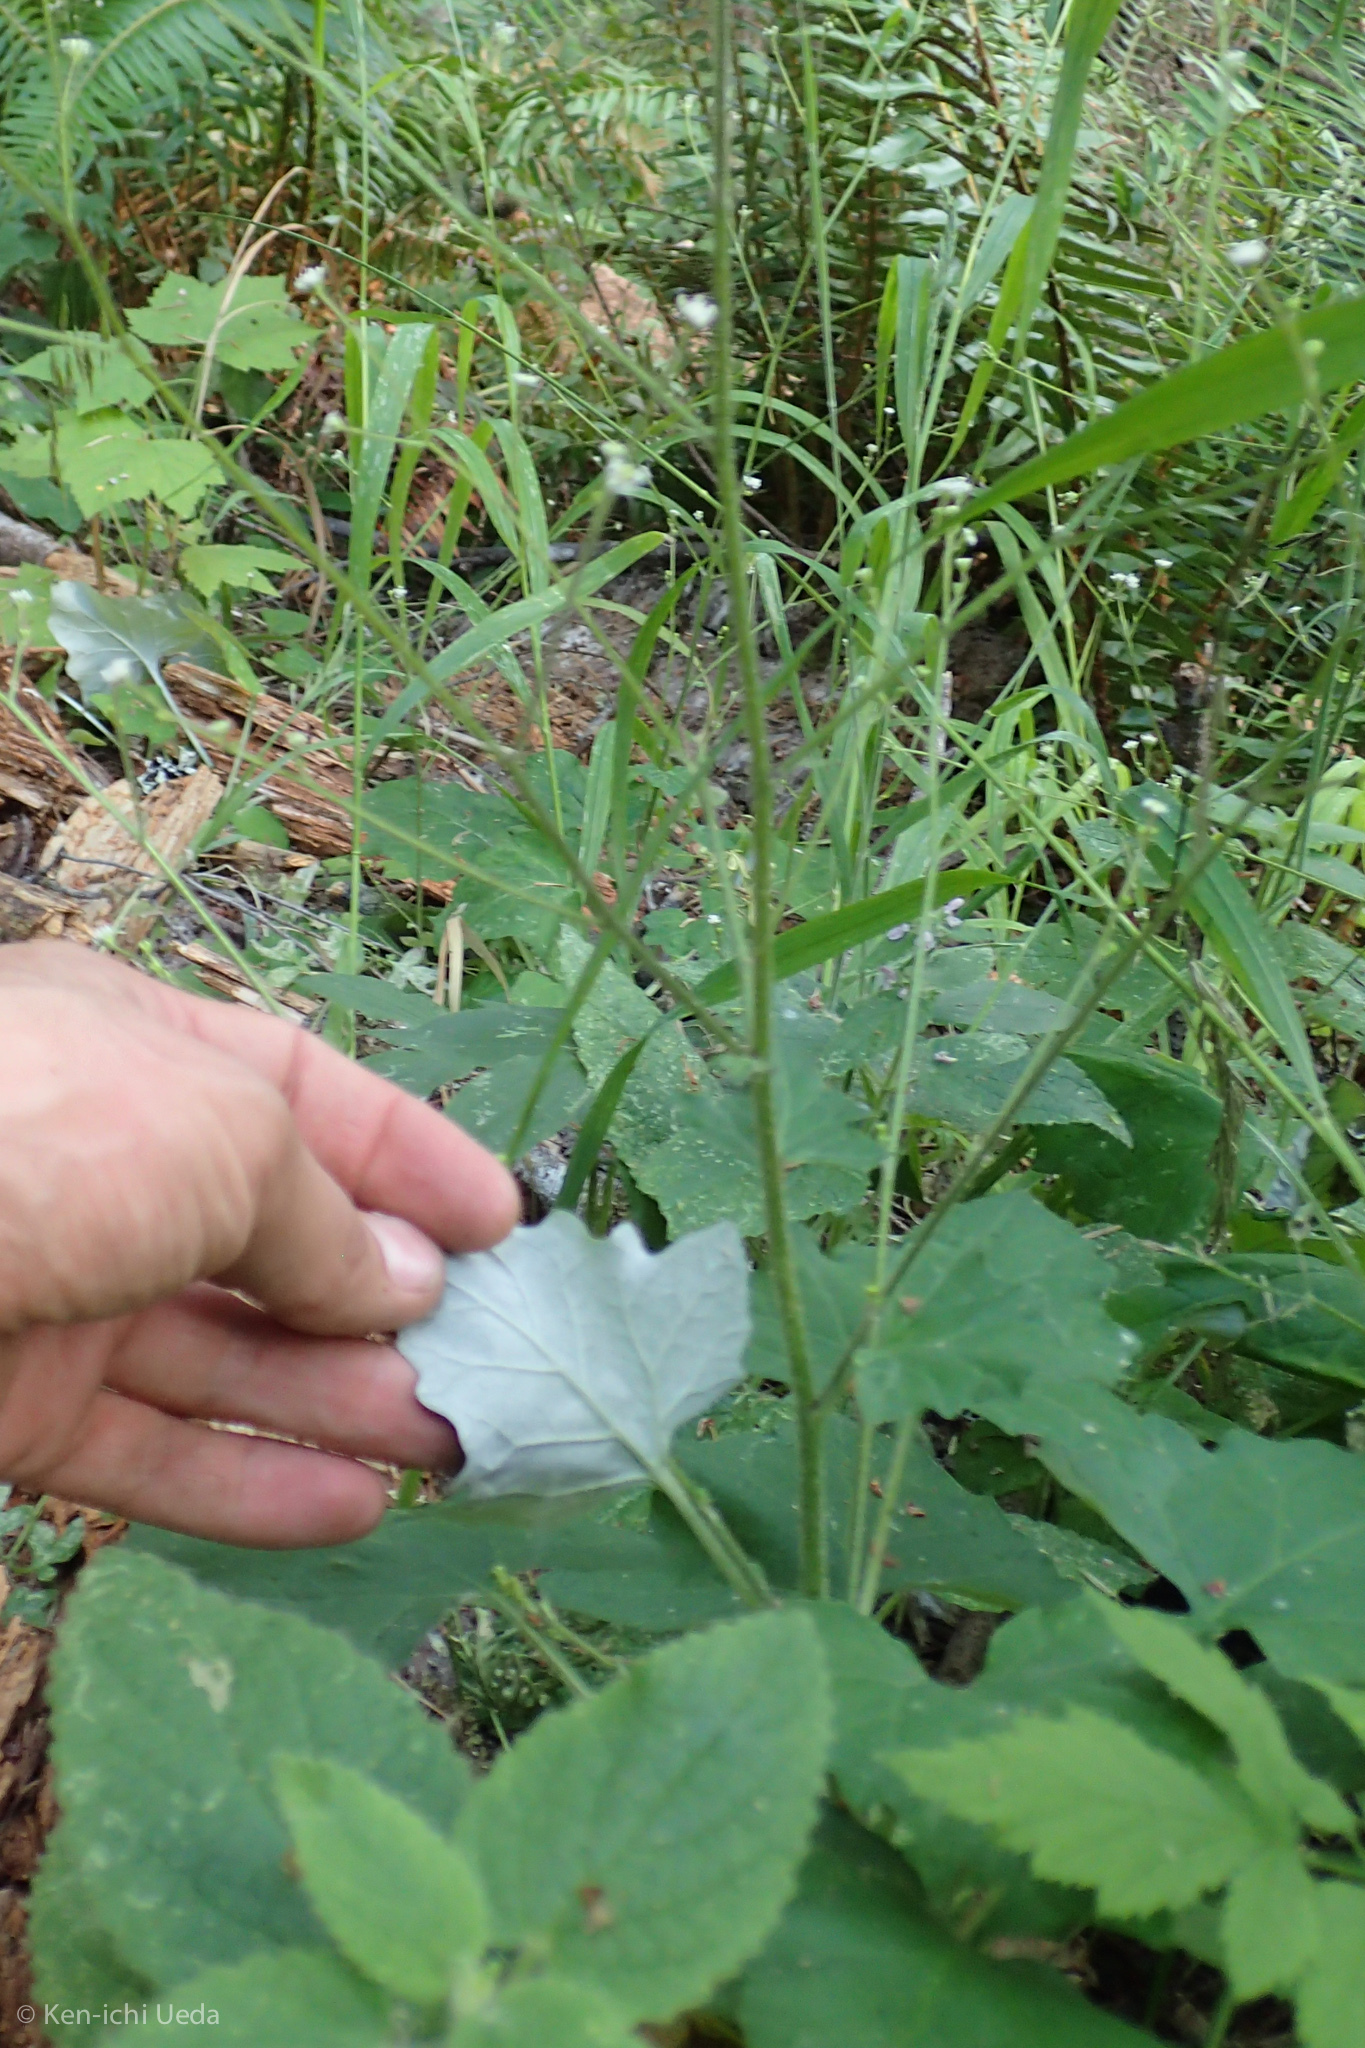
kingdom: Plantae
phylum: Tracheophyta
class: Magnoliopsida
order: Asterales
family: Asteraceae
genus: Adenocaulon
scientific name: Adenocaulon bicolor
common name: Trailplant
